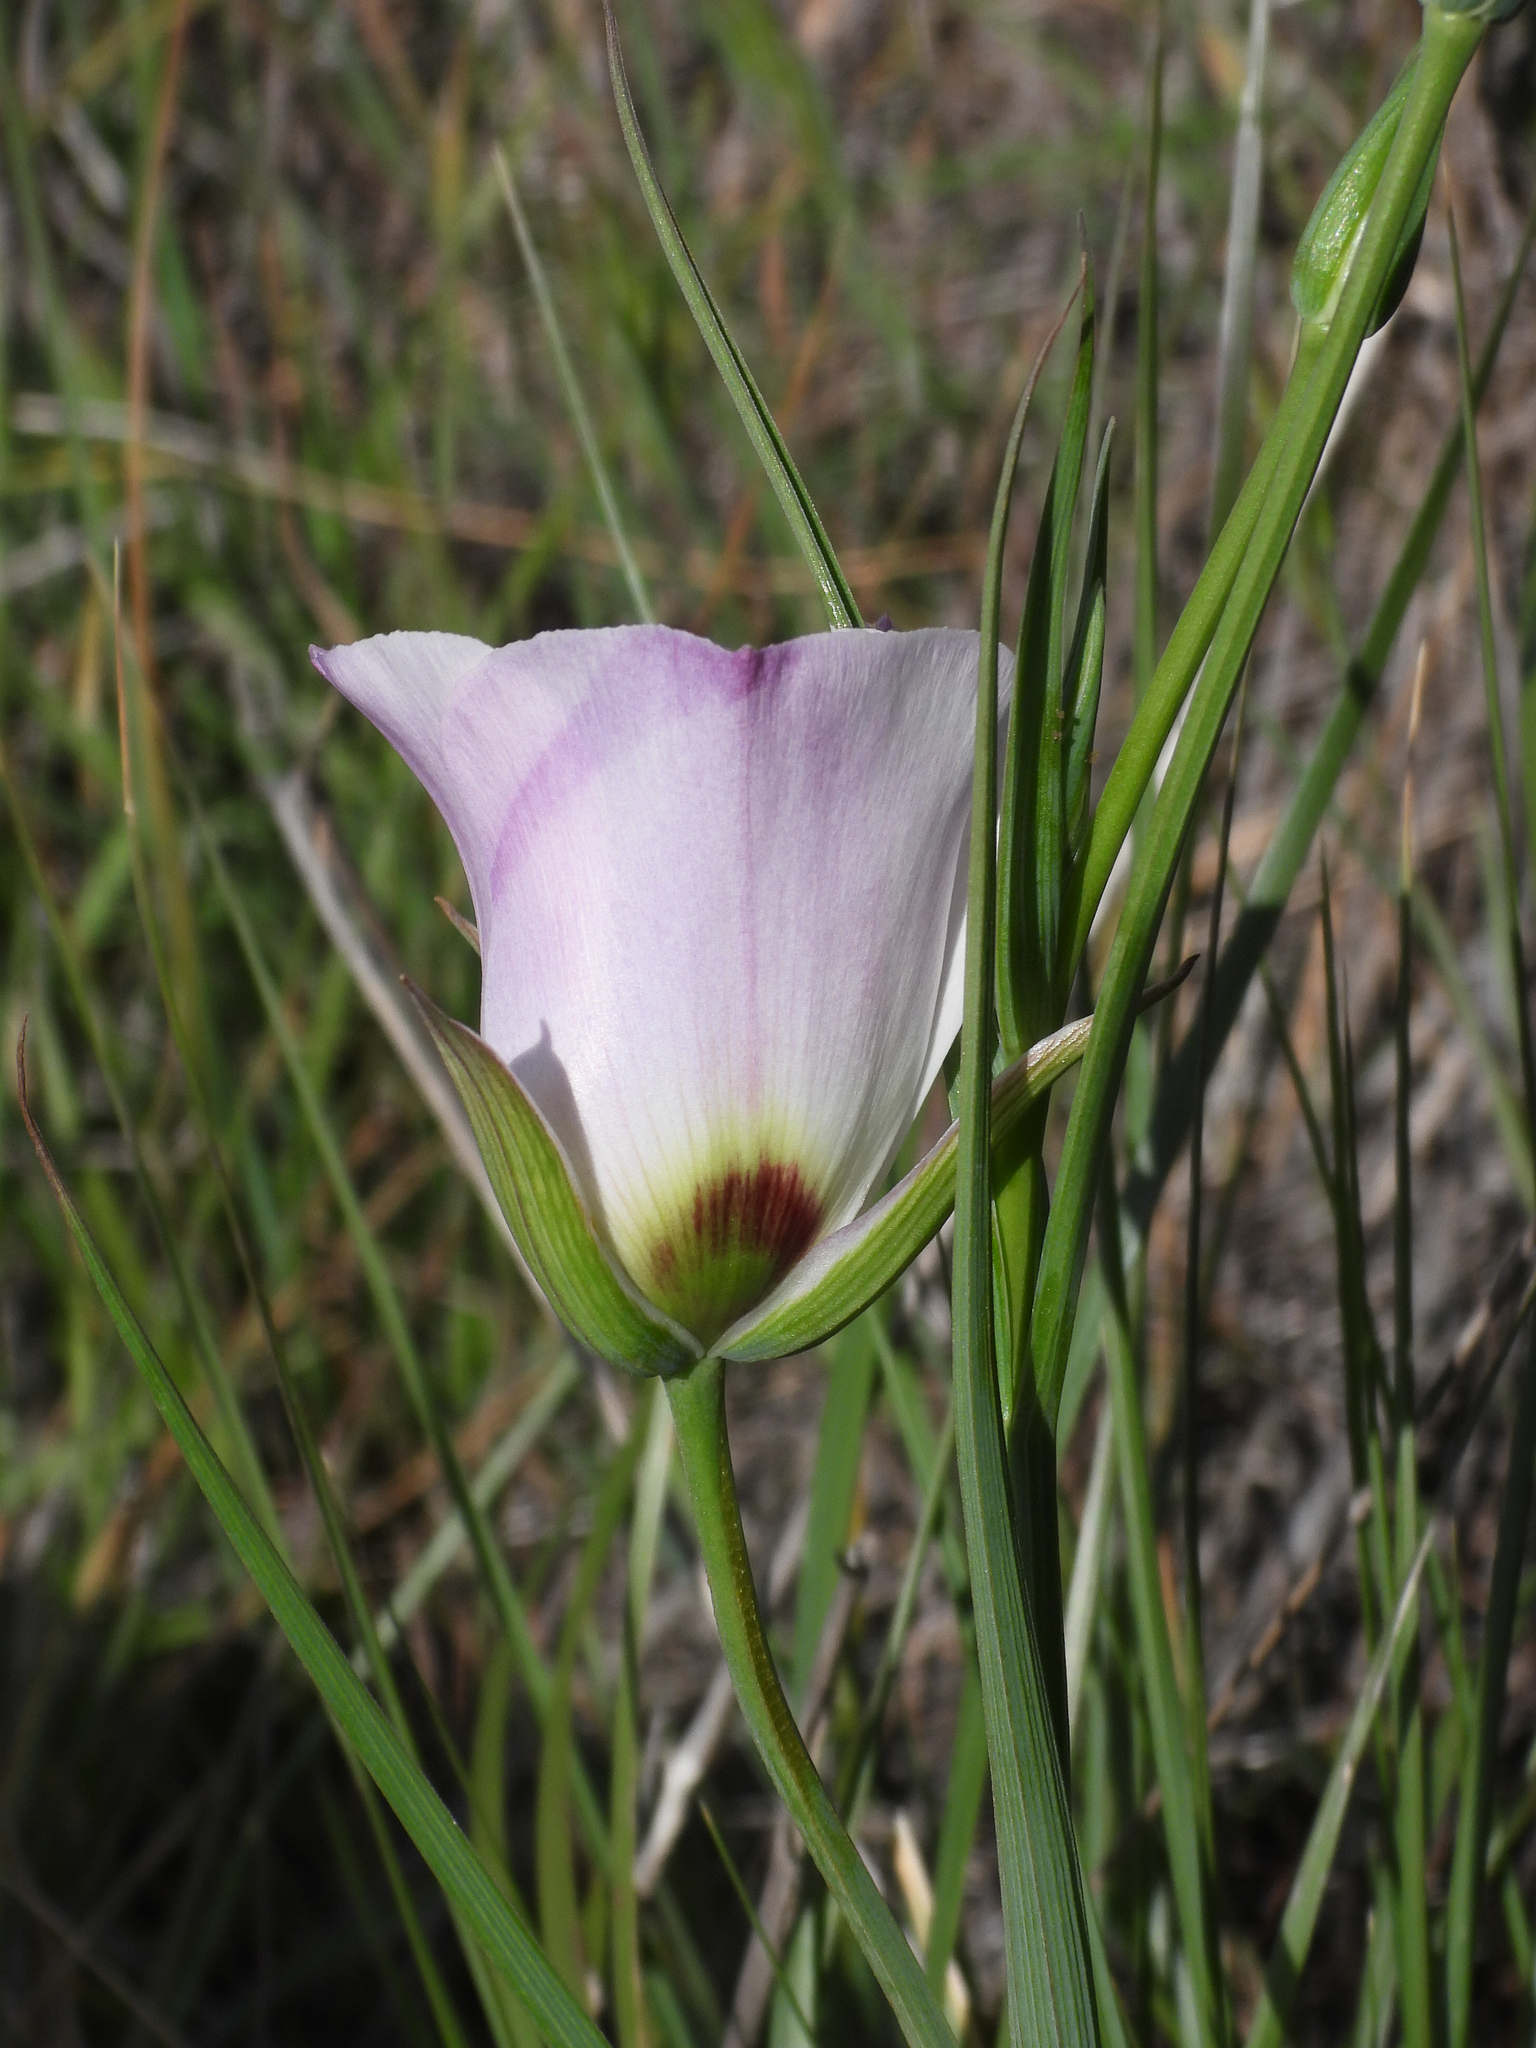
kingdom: Plantae
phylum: Tracheophyta
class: Liliopsida
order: Liliales
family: Liliaceae
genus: Calochortus
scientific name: Calochortus catalinae
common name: Catalina mariposa-lily
